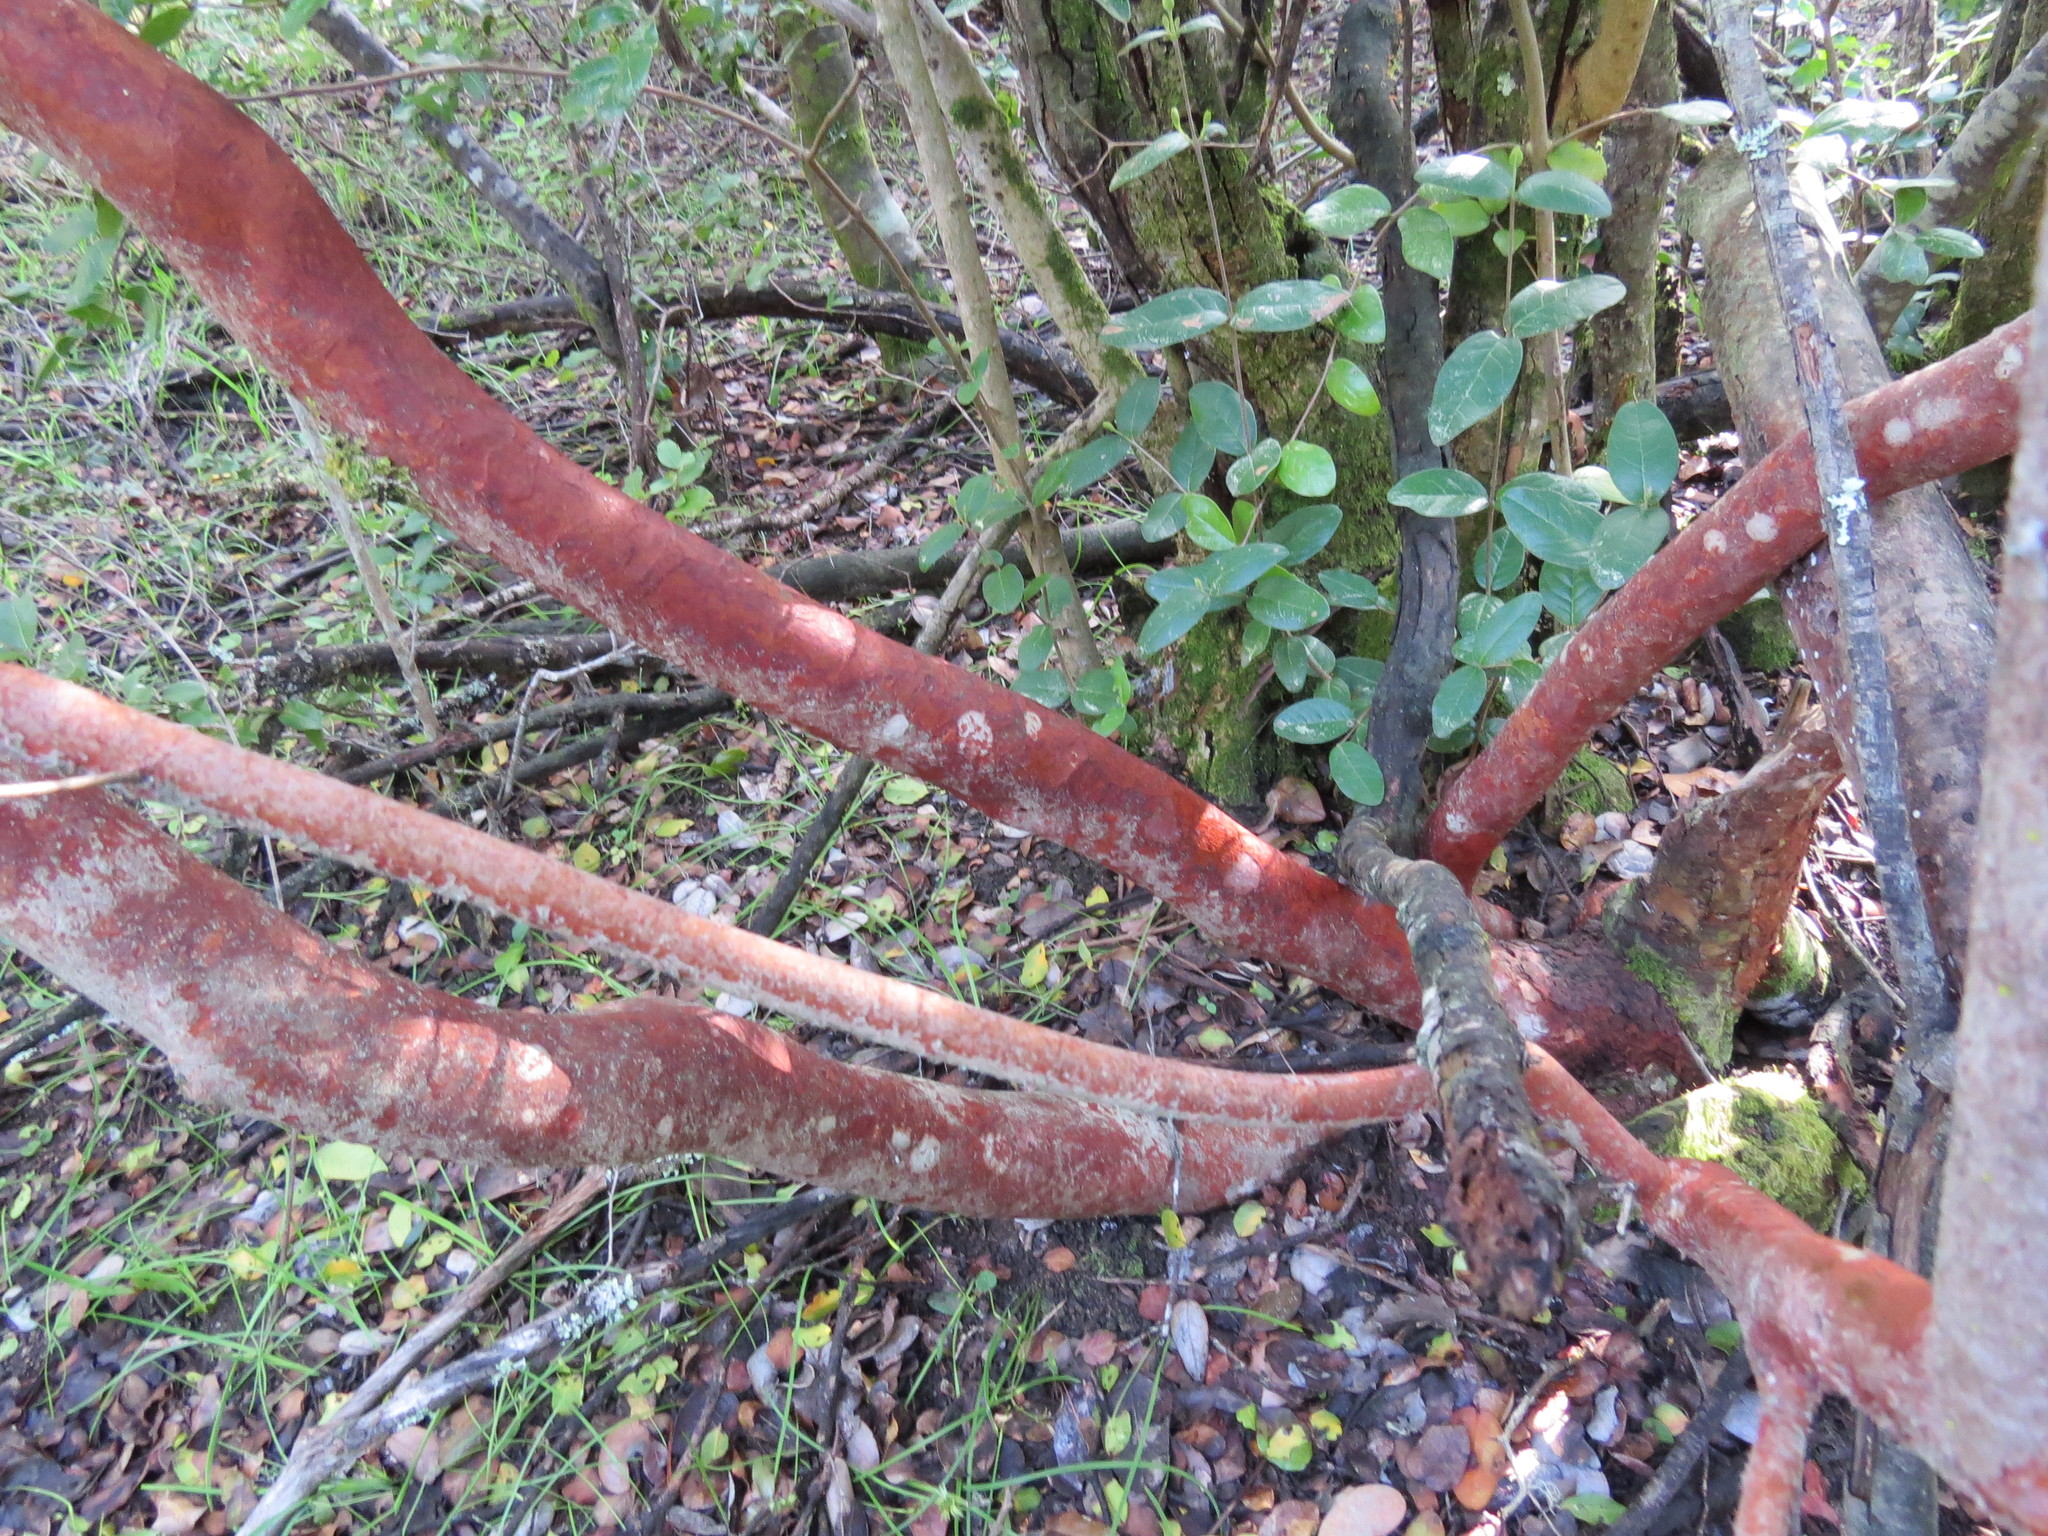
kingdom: Plantae
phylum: Tracheophyta
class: Magnoliopsida
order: Myrtales
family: Myrtaceae
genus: Luma
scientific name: Luma apiculata
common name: Chilean myrtle
